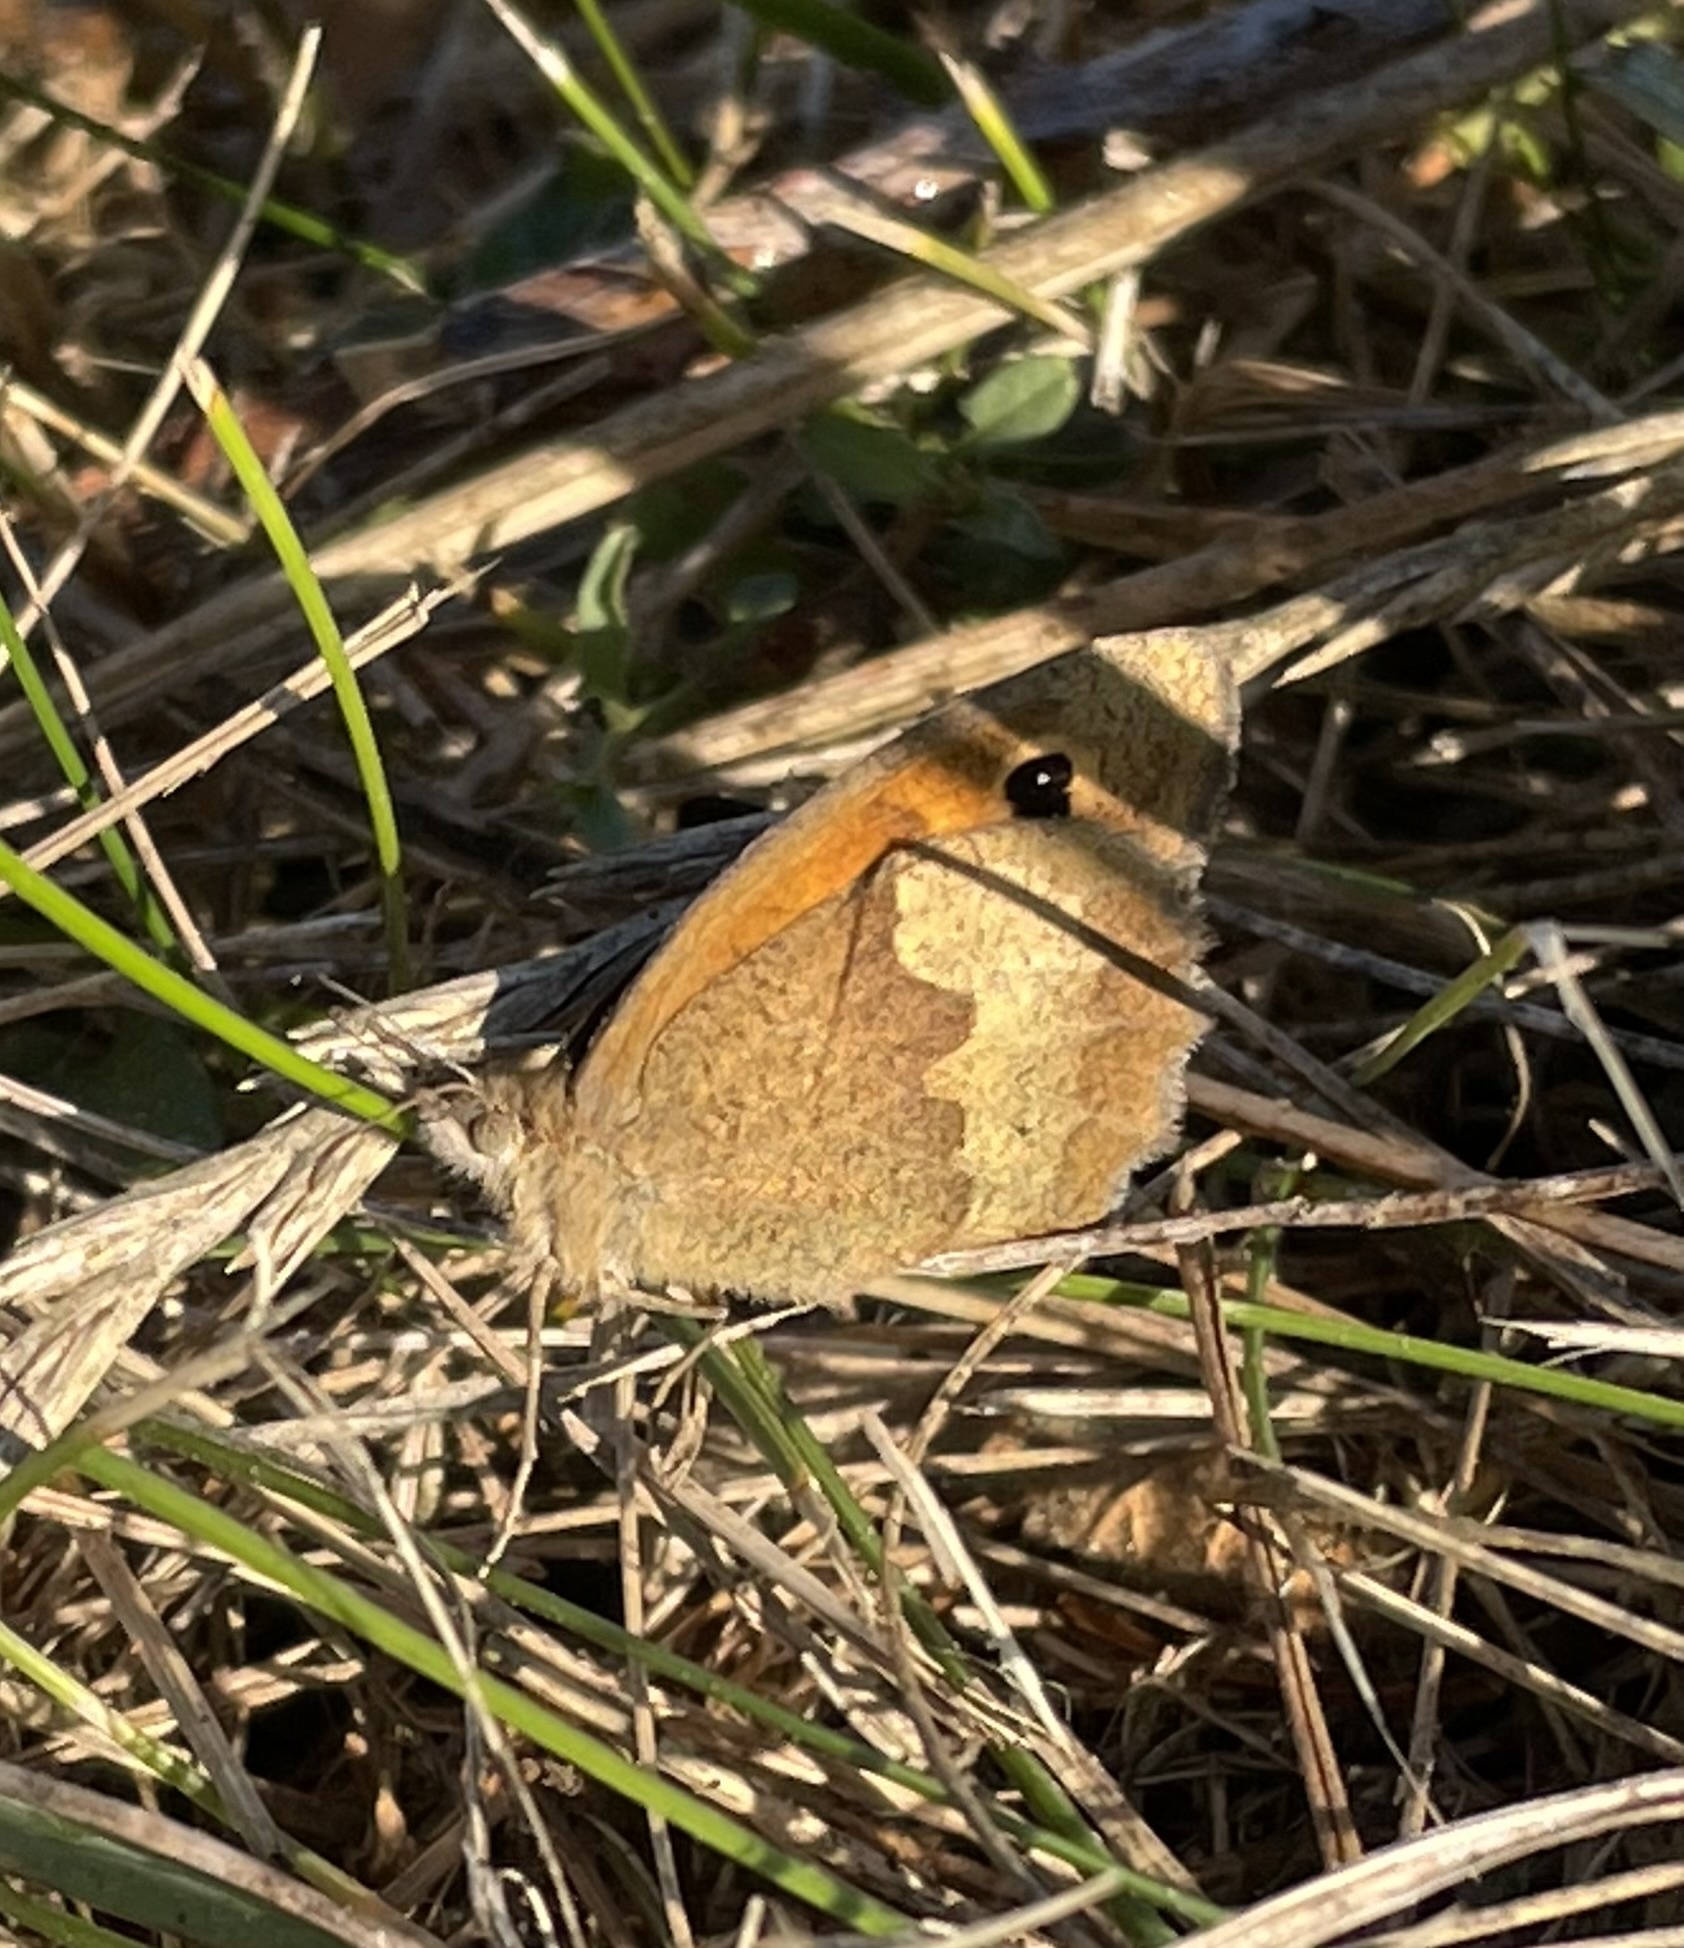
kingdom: Animalia
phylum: Arthropoda
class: Insecta
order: Lepidoptera
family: Nymphalidae
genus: Maniola
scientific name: Maniola jurtina
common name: Meadow brown
